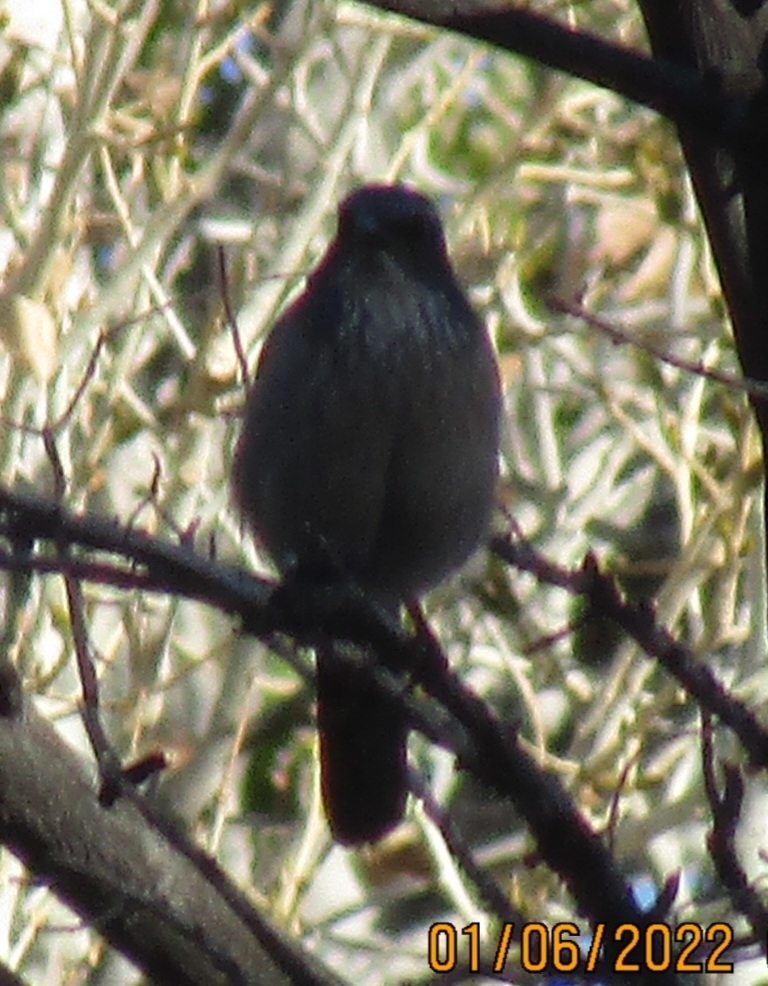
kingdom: Animalia
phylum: Chordata
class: Aves
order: Passeriformes
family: Corvidae
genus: Aphelocoma
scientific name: Aphelocoma californica
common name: California scrub-jay
